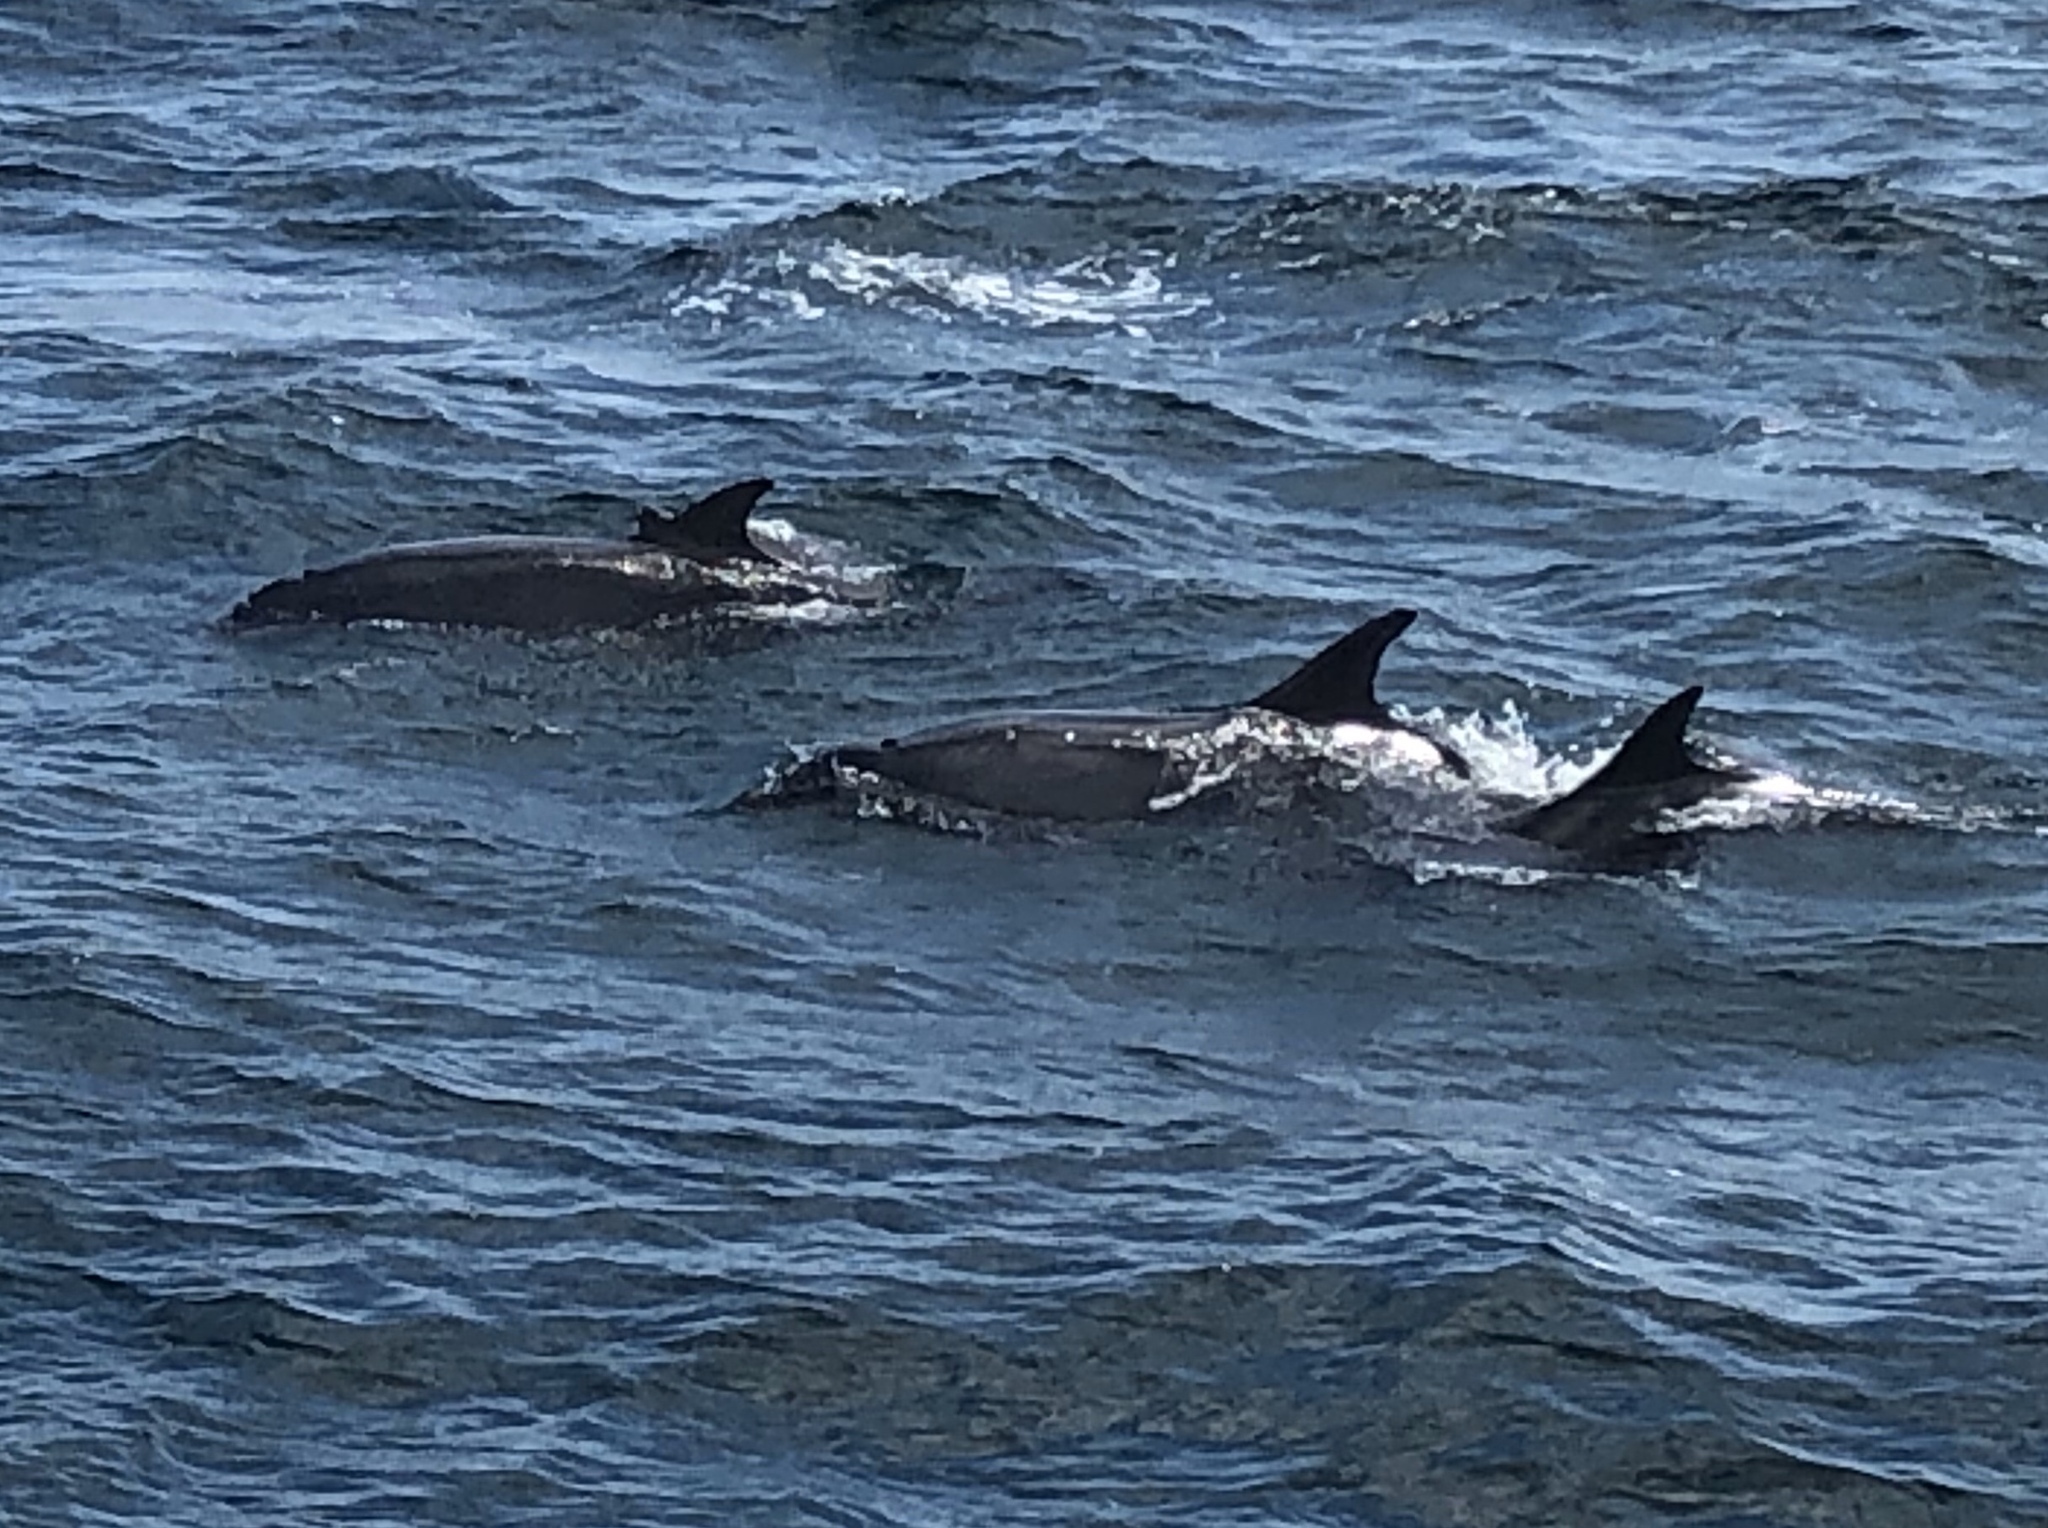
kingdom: Animalia
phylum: Chordata
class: Mammalia
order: Cetacea
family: Delphinidae
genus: Tursiops
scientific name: Tursiops truncatus
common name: Bottlenose dolphin
